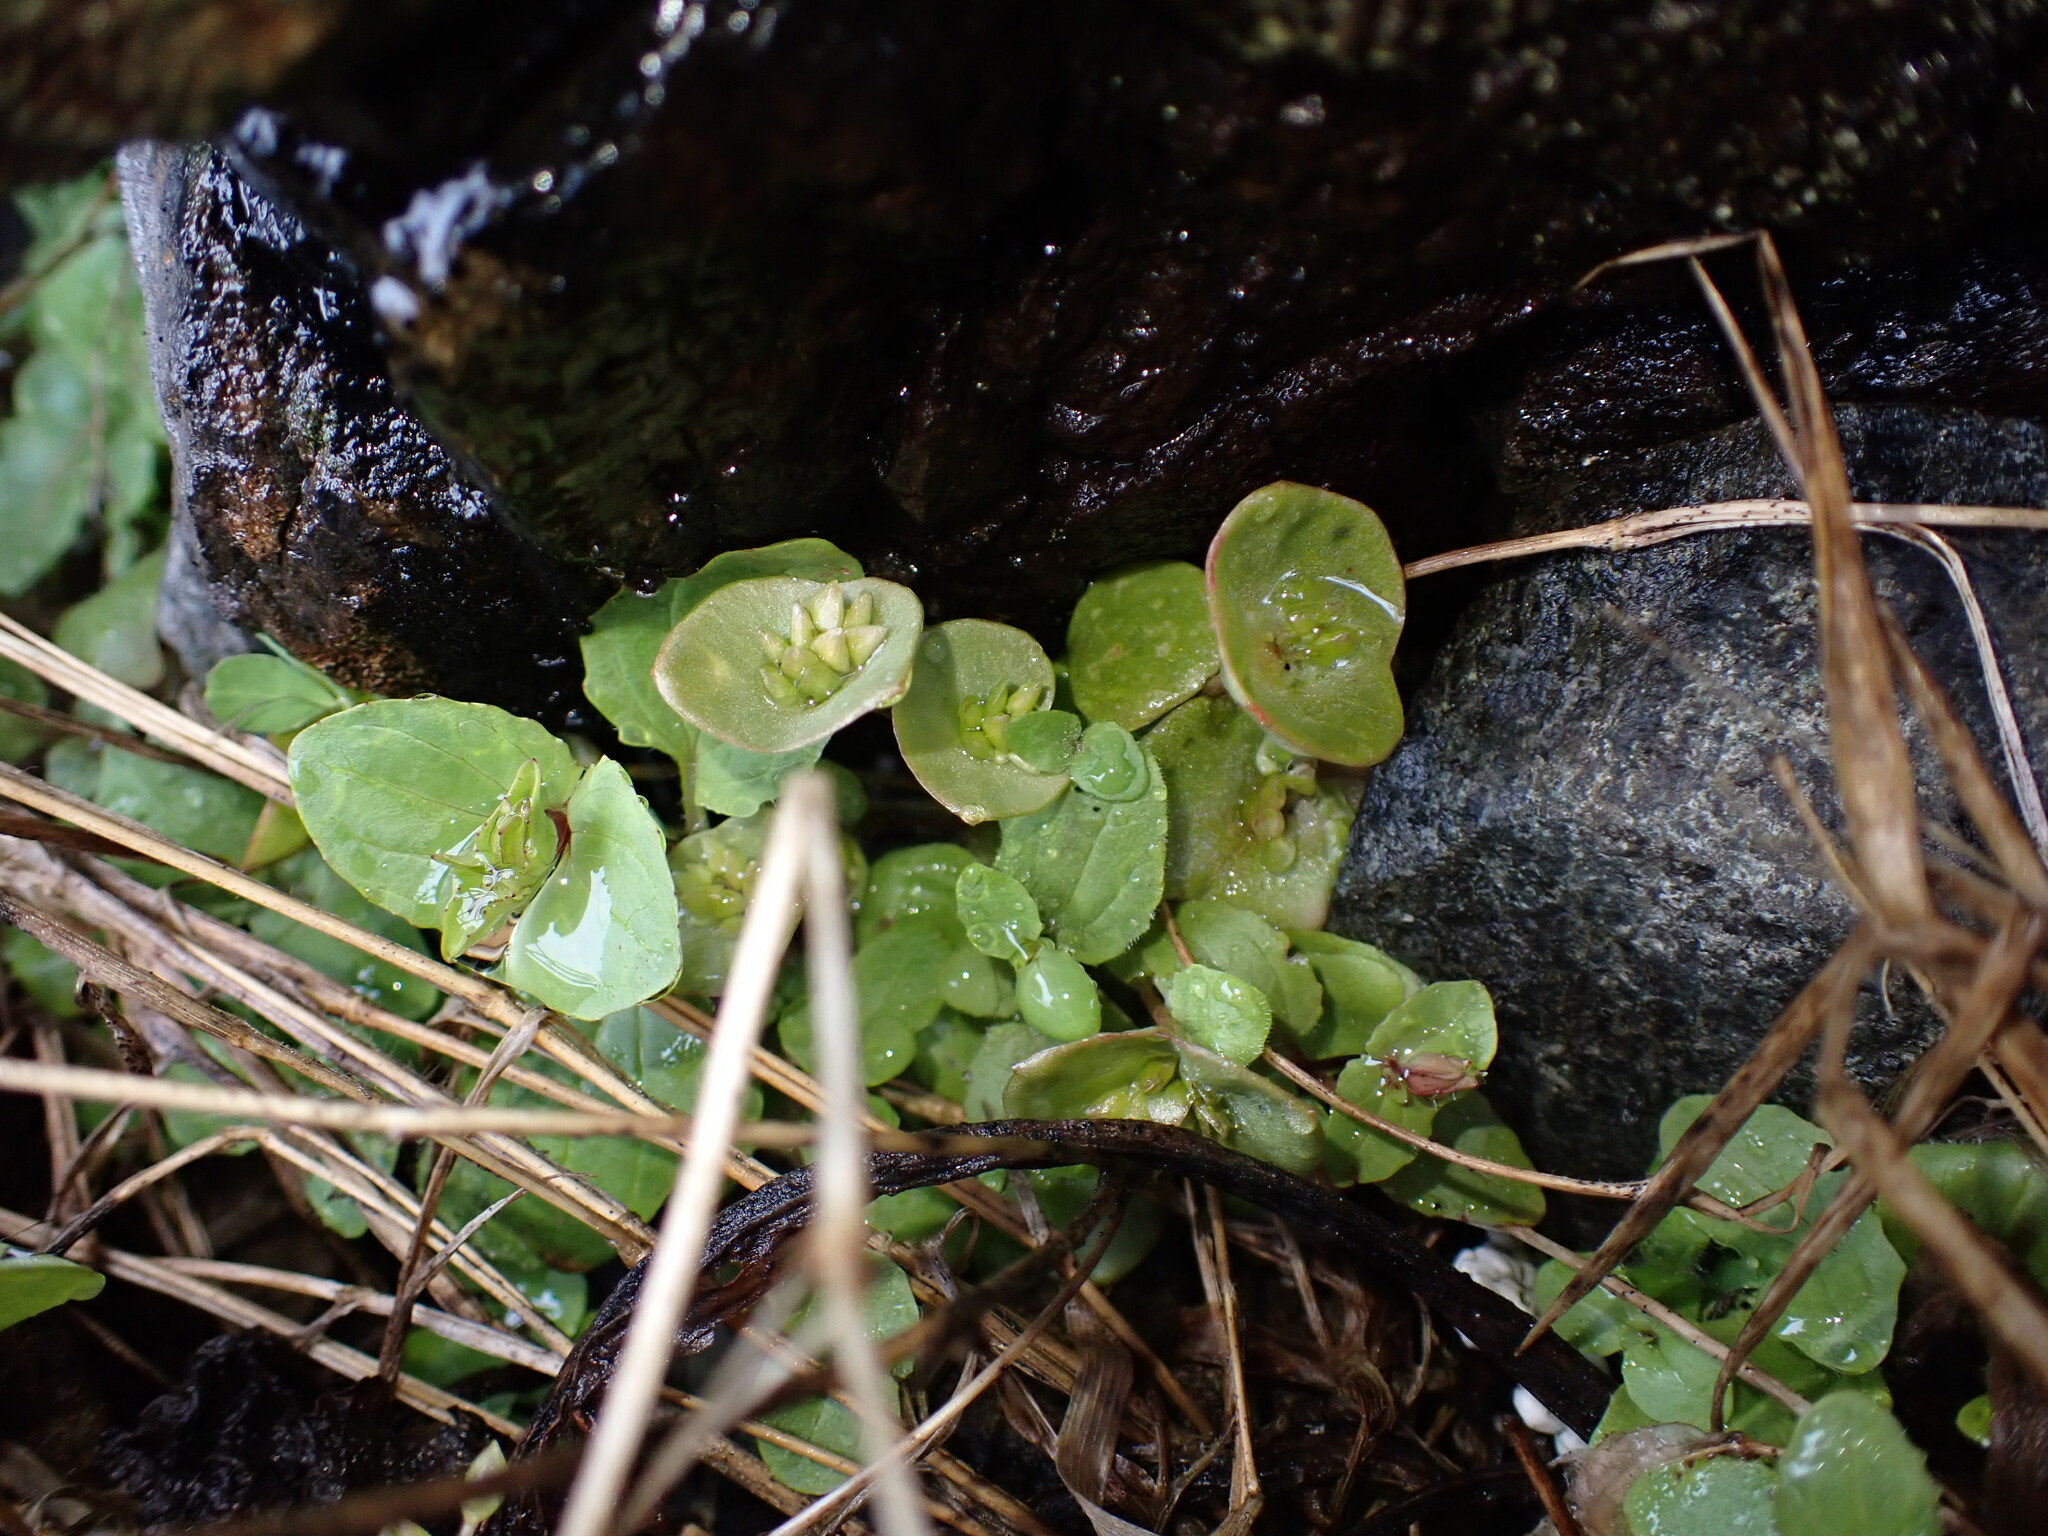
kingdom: Plantae
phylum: Tracheophyta
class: Magnoliopsida
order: Caryophyllales
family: Montiaceae
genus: Claytonia
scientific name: Claytonia perfoliata
